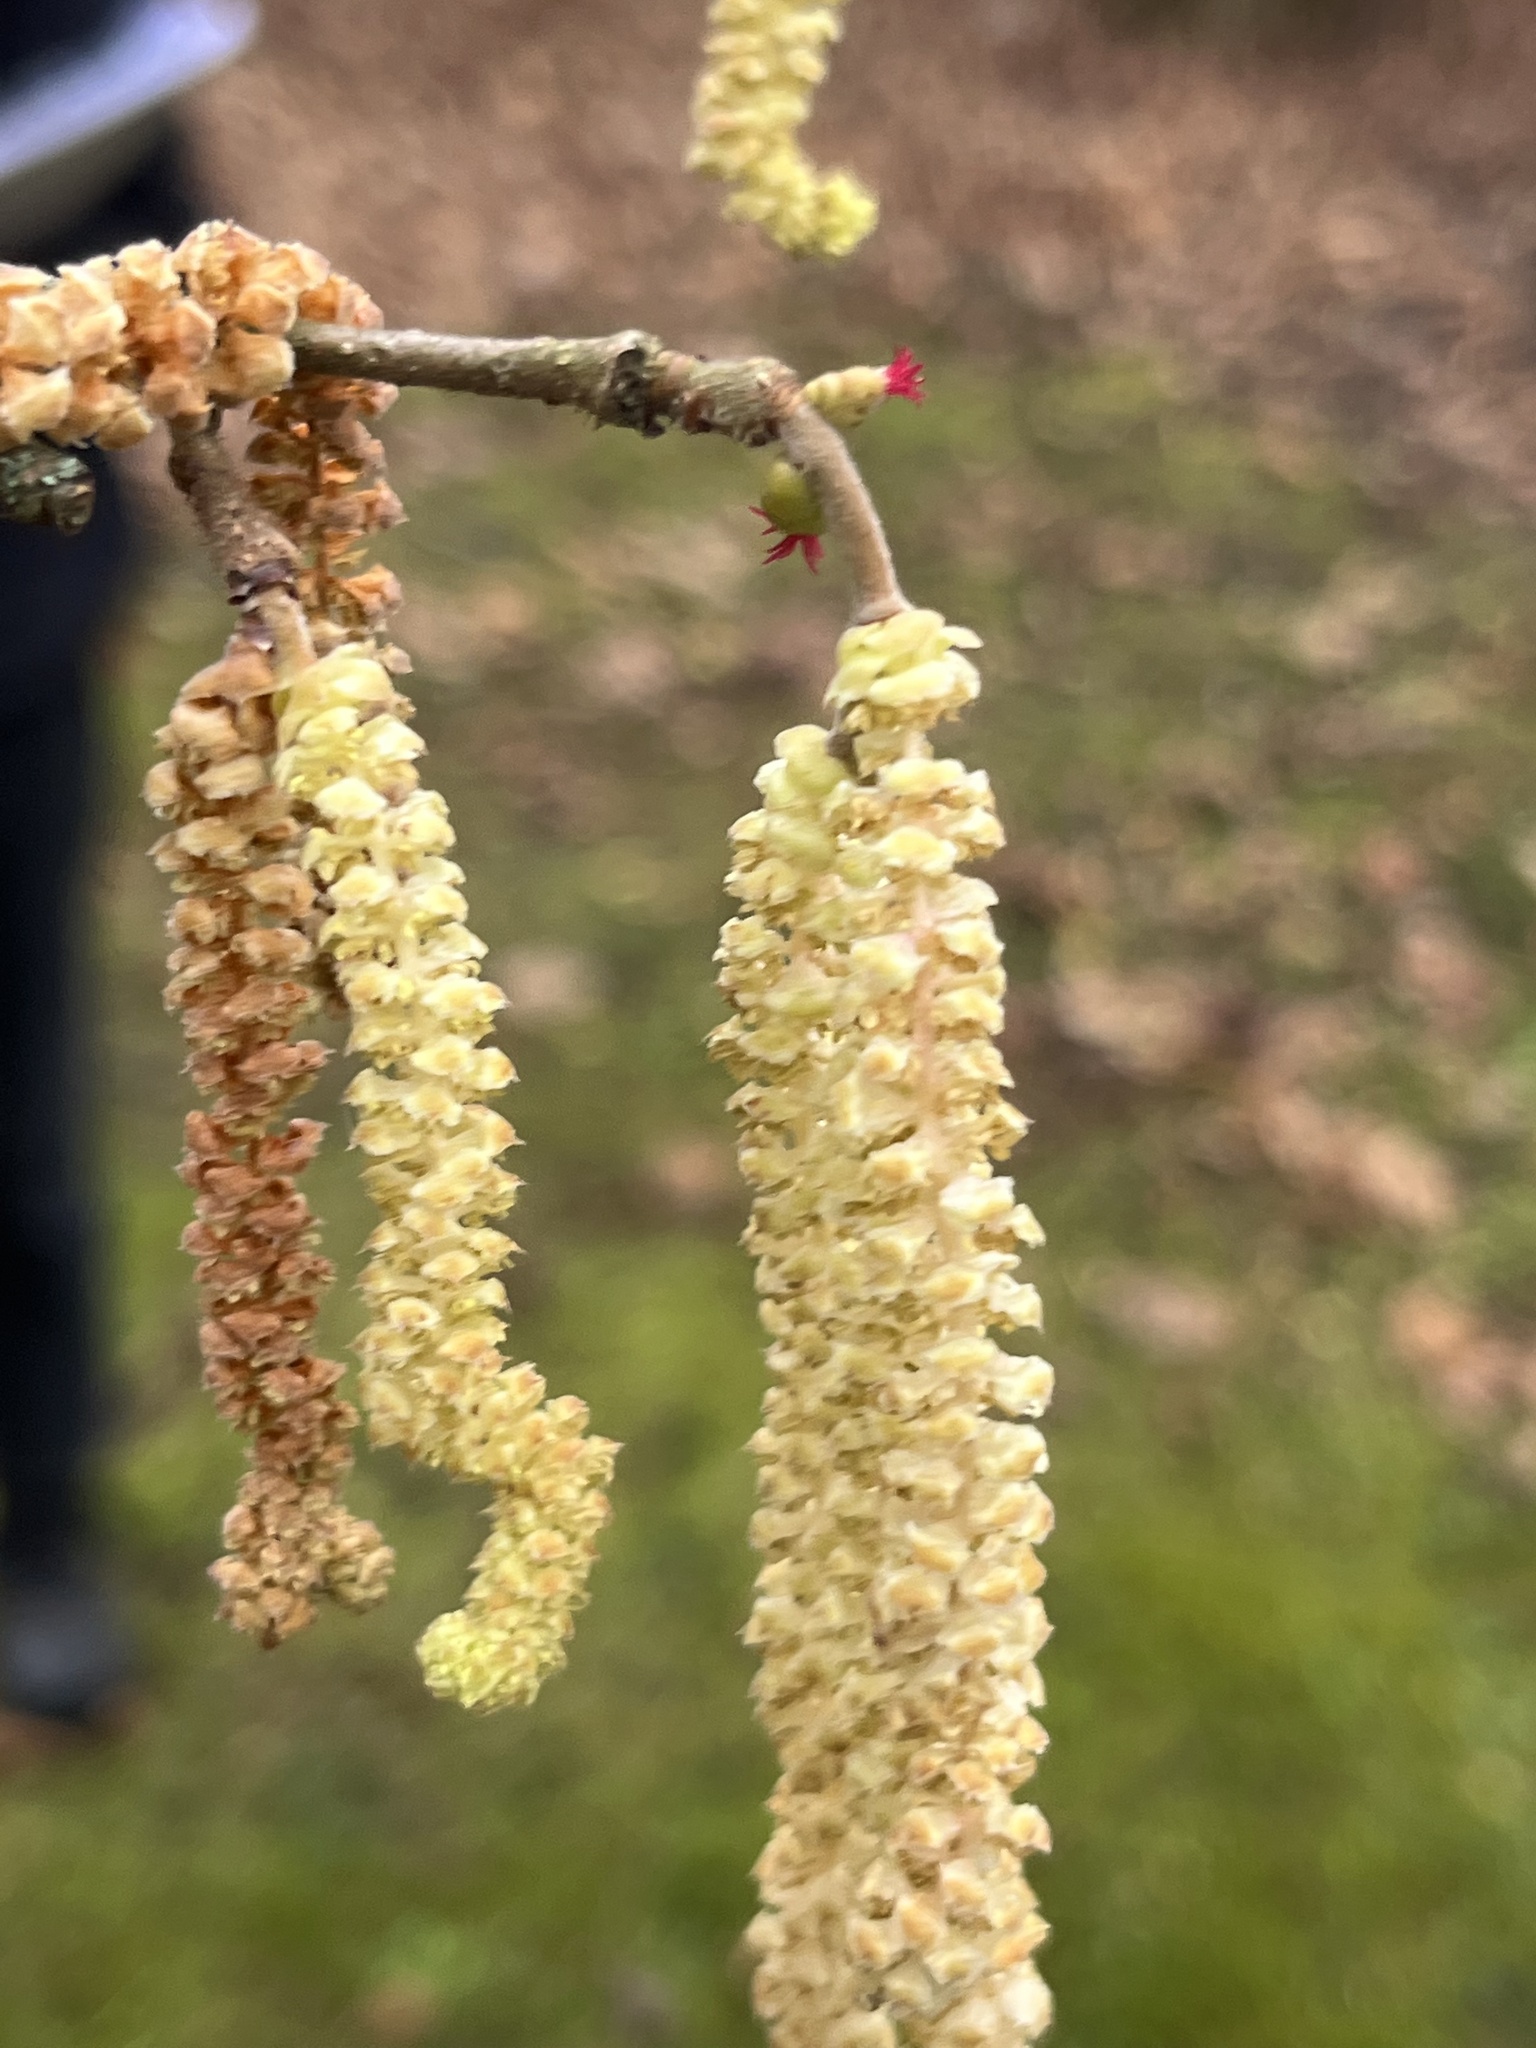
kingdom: Plantae
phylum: Tracheophyta
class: Magnoliopsida
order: Fagales
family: Betulaceae
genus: Corylus
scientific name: Corylus avellana
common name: European hazel
